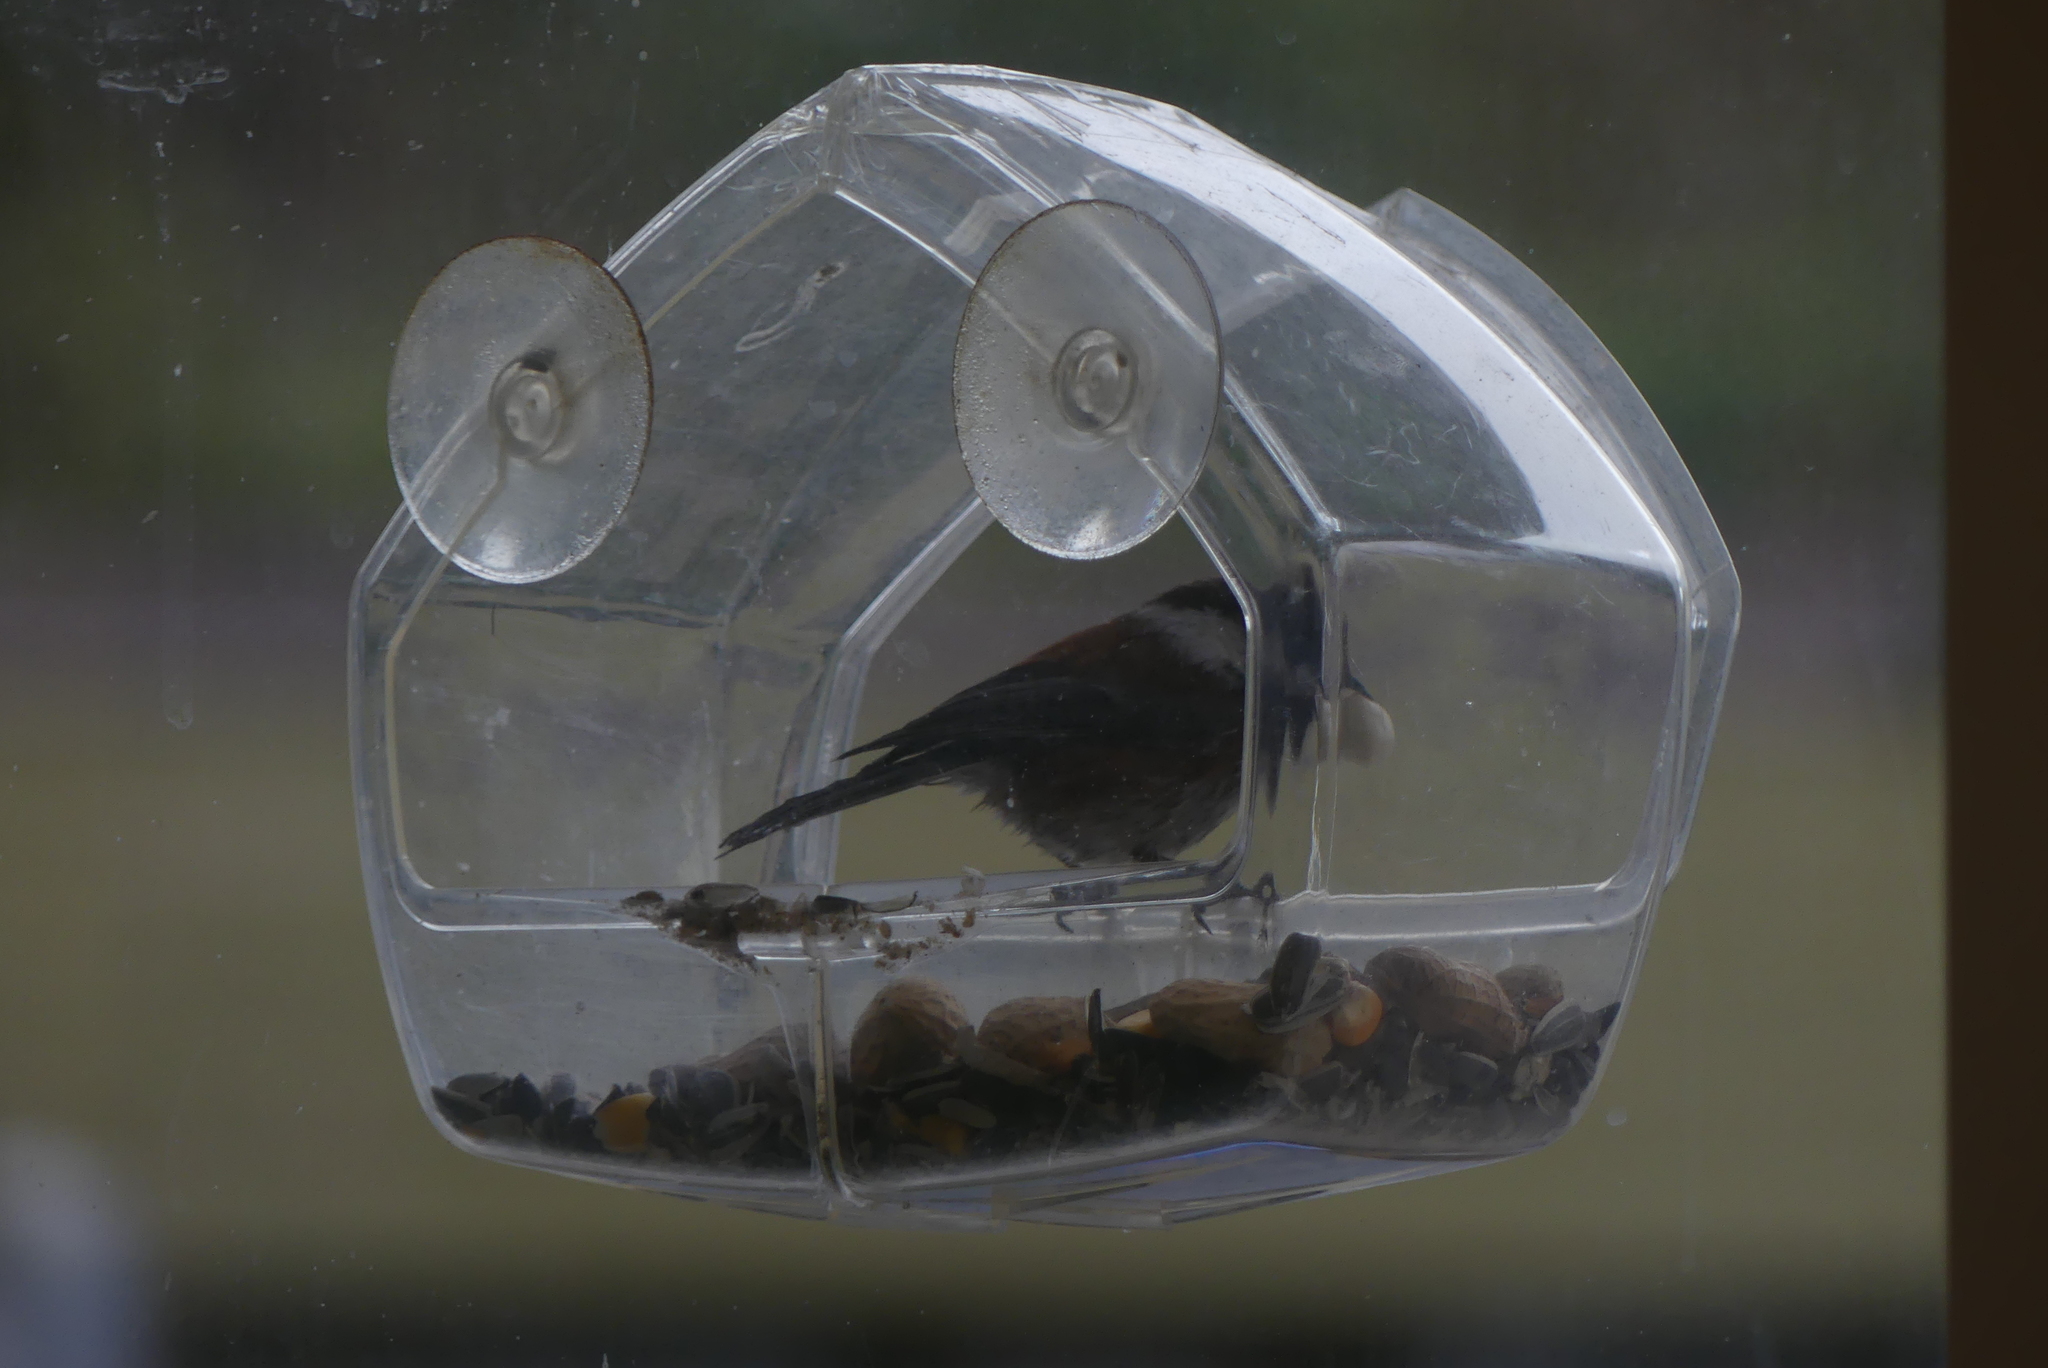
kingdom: Animalia
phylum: Chordata
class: Aves
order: Passeriformes
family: Paridae
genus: Poecile
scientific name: Poecile rufescens
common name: Chestnut-backed chickadee
